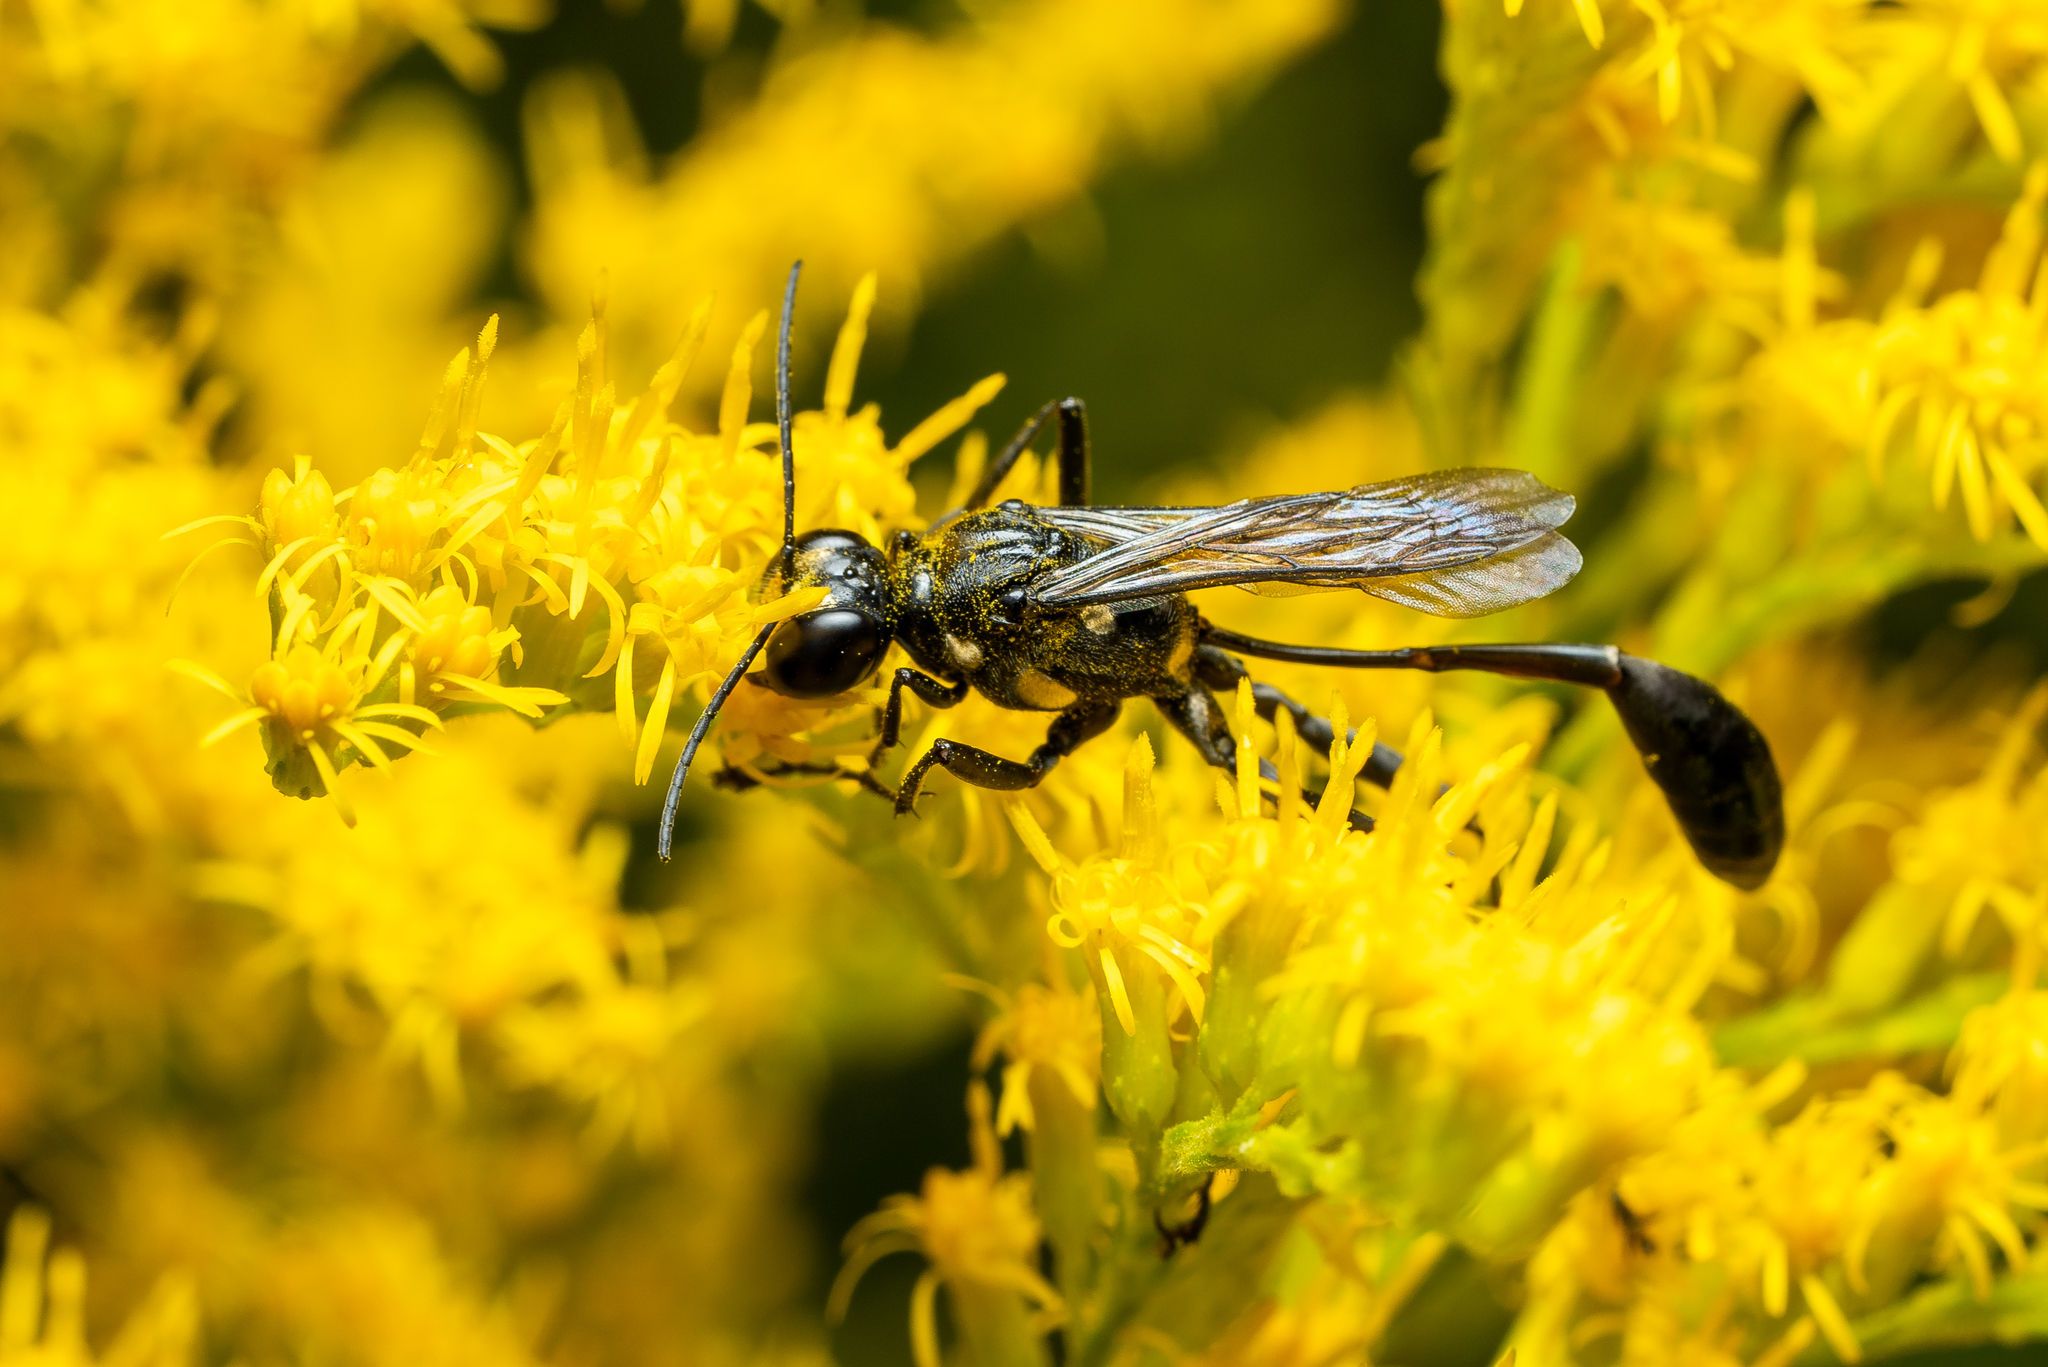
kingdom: Animalia
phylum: Arthropoda
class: Insecta
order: Hymenoptera
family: Sphecidae
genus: Eremnophila
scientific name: Eremnophila aureonotata
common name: Gold-marked thread-waisted wasp
